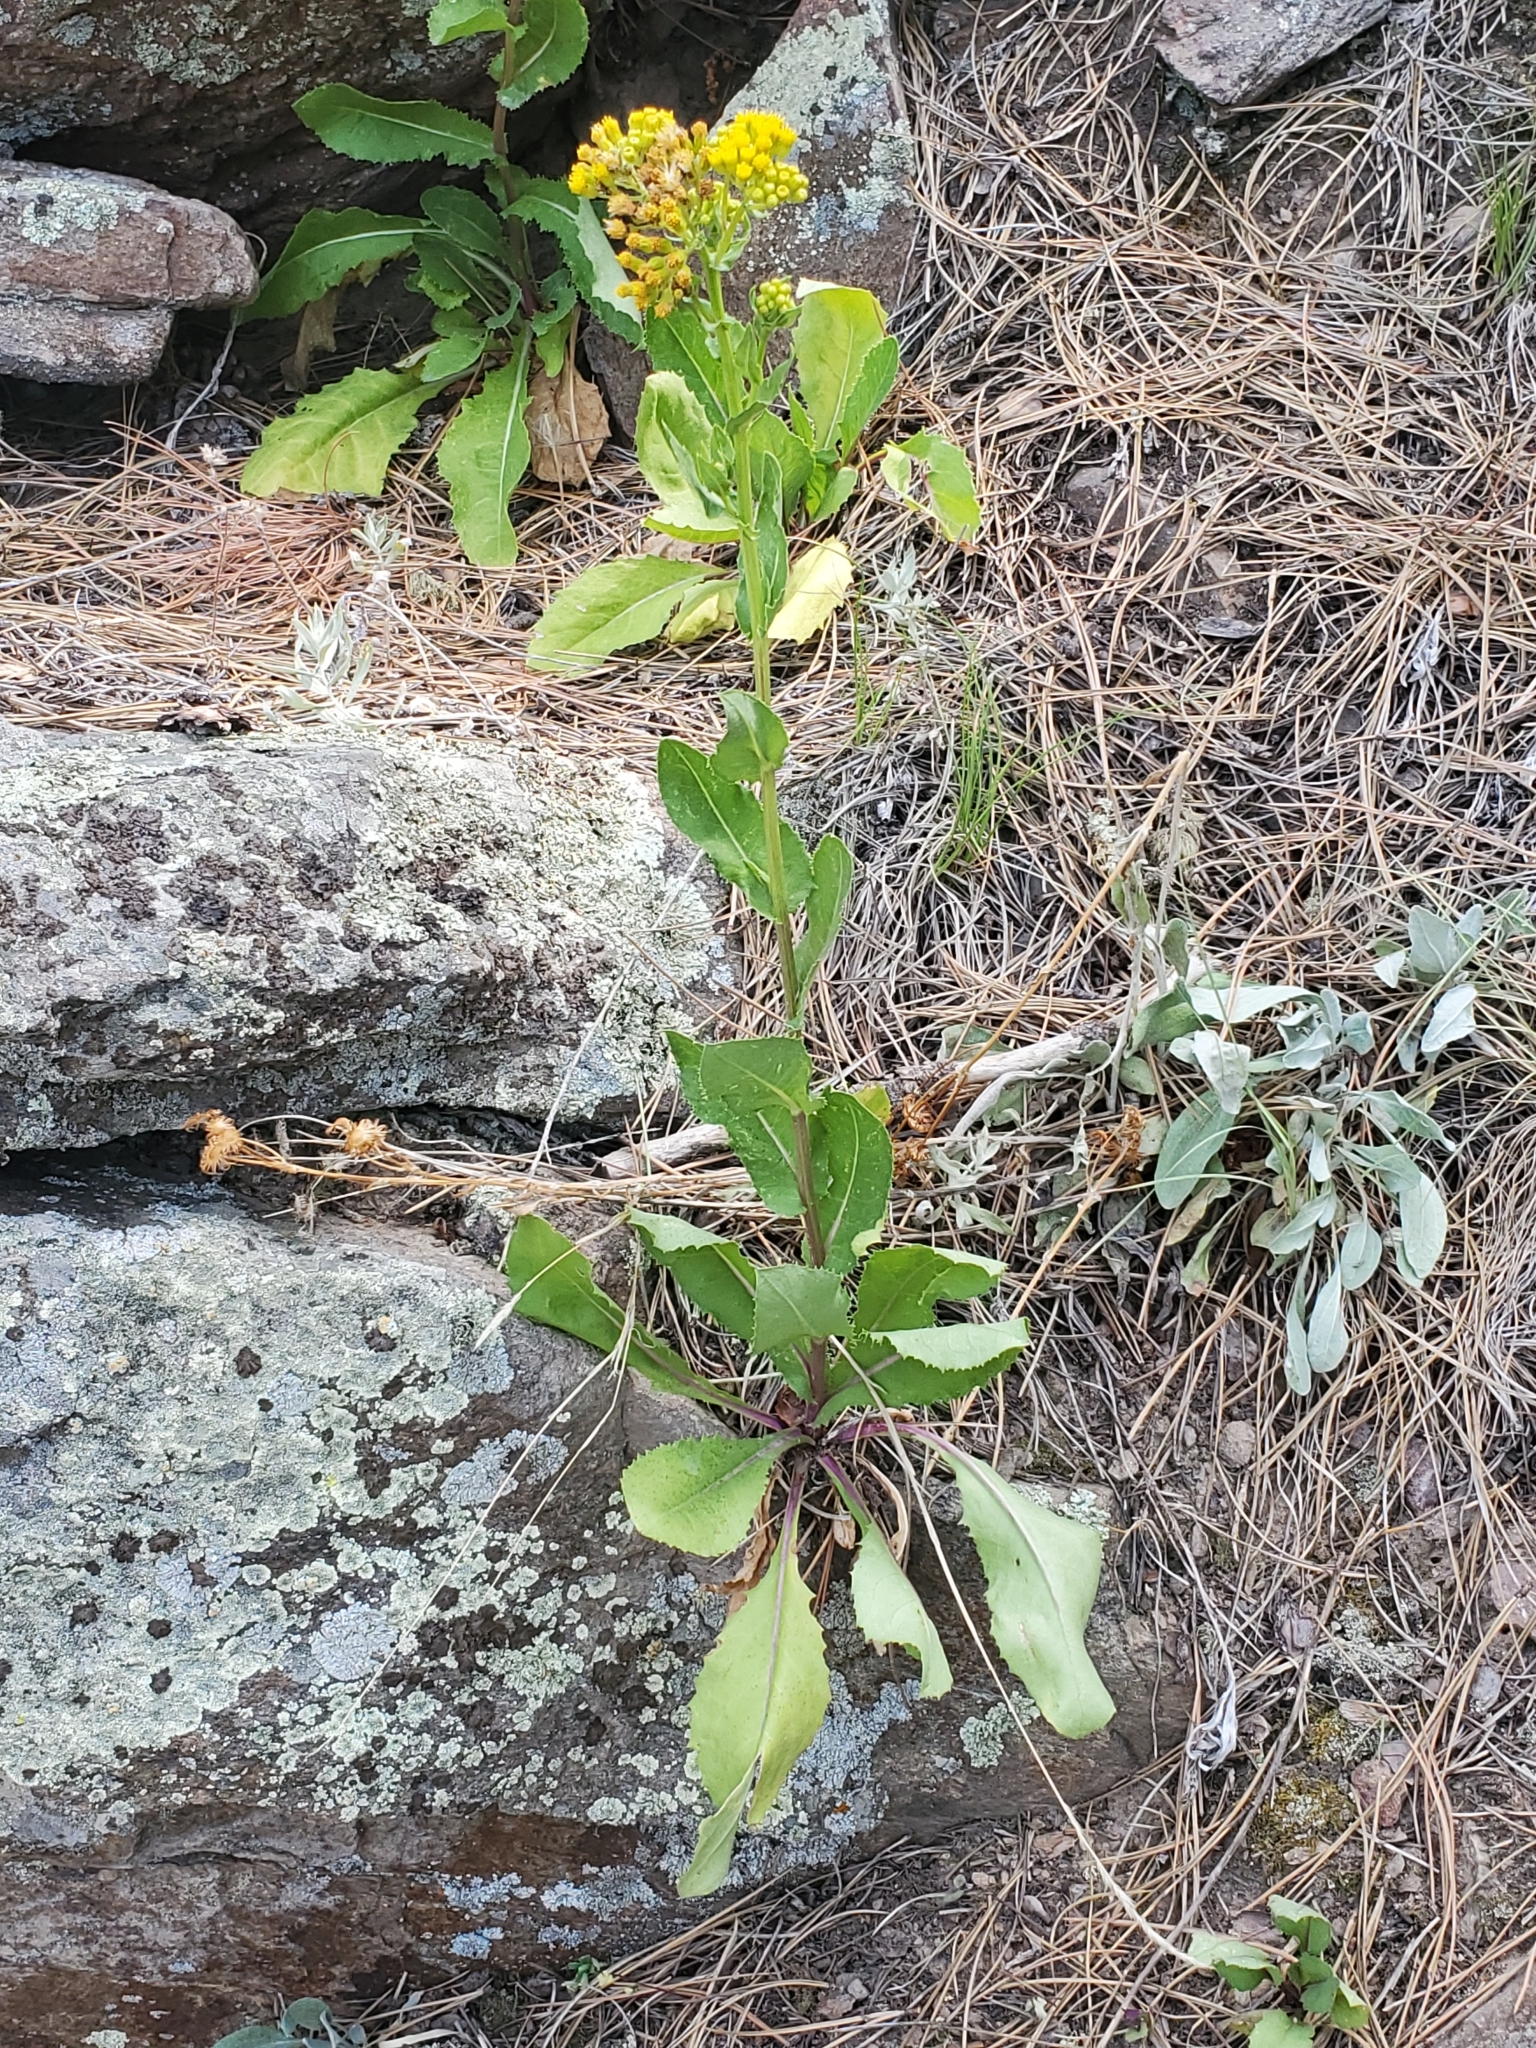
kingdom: Plantae
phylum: Tracheophyta
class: Magnoliopsida
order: Asterales
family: Asteraceae
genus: Senecio
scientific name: Senecio rapifolius
